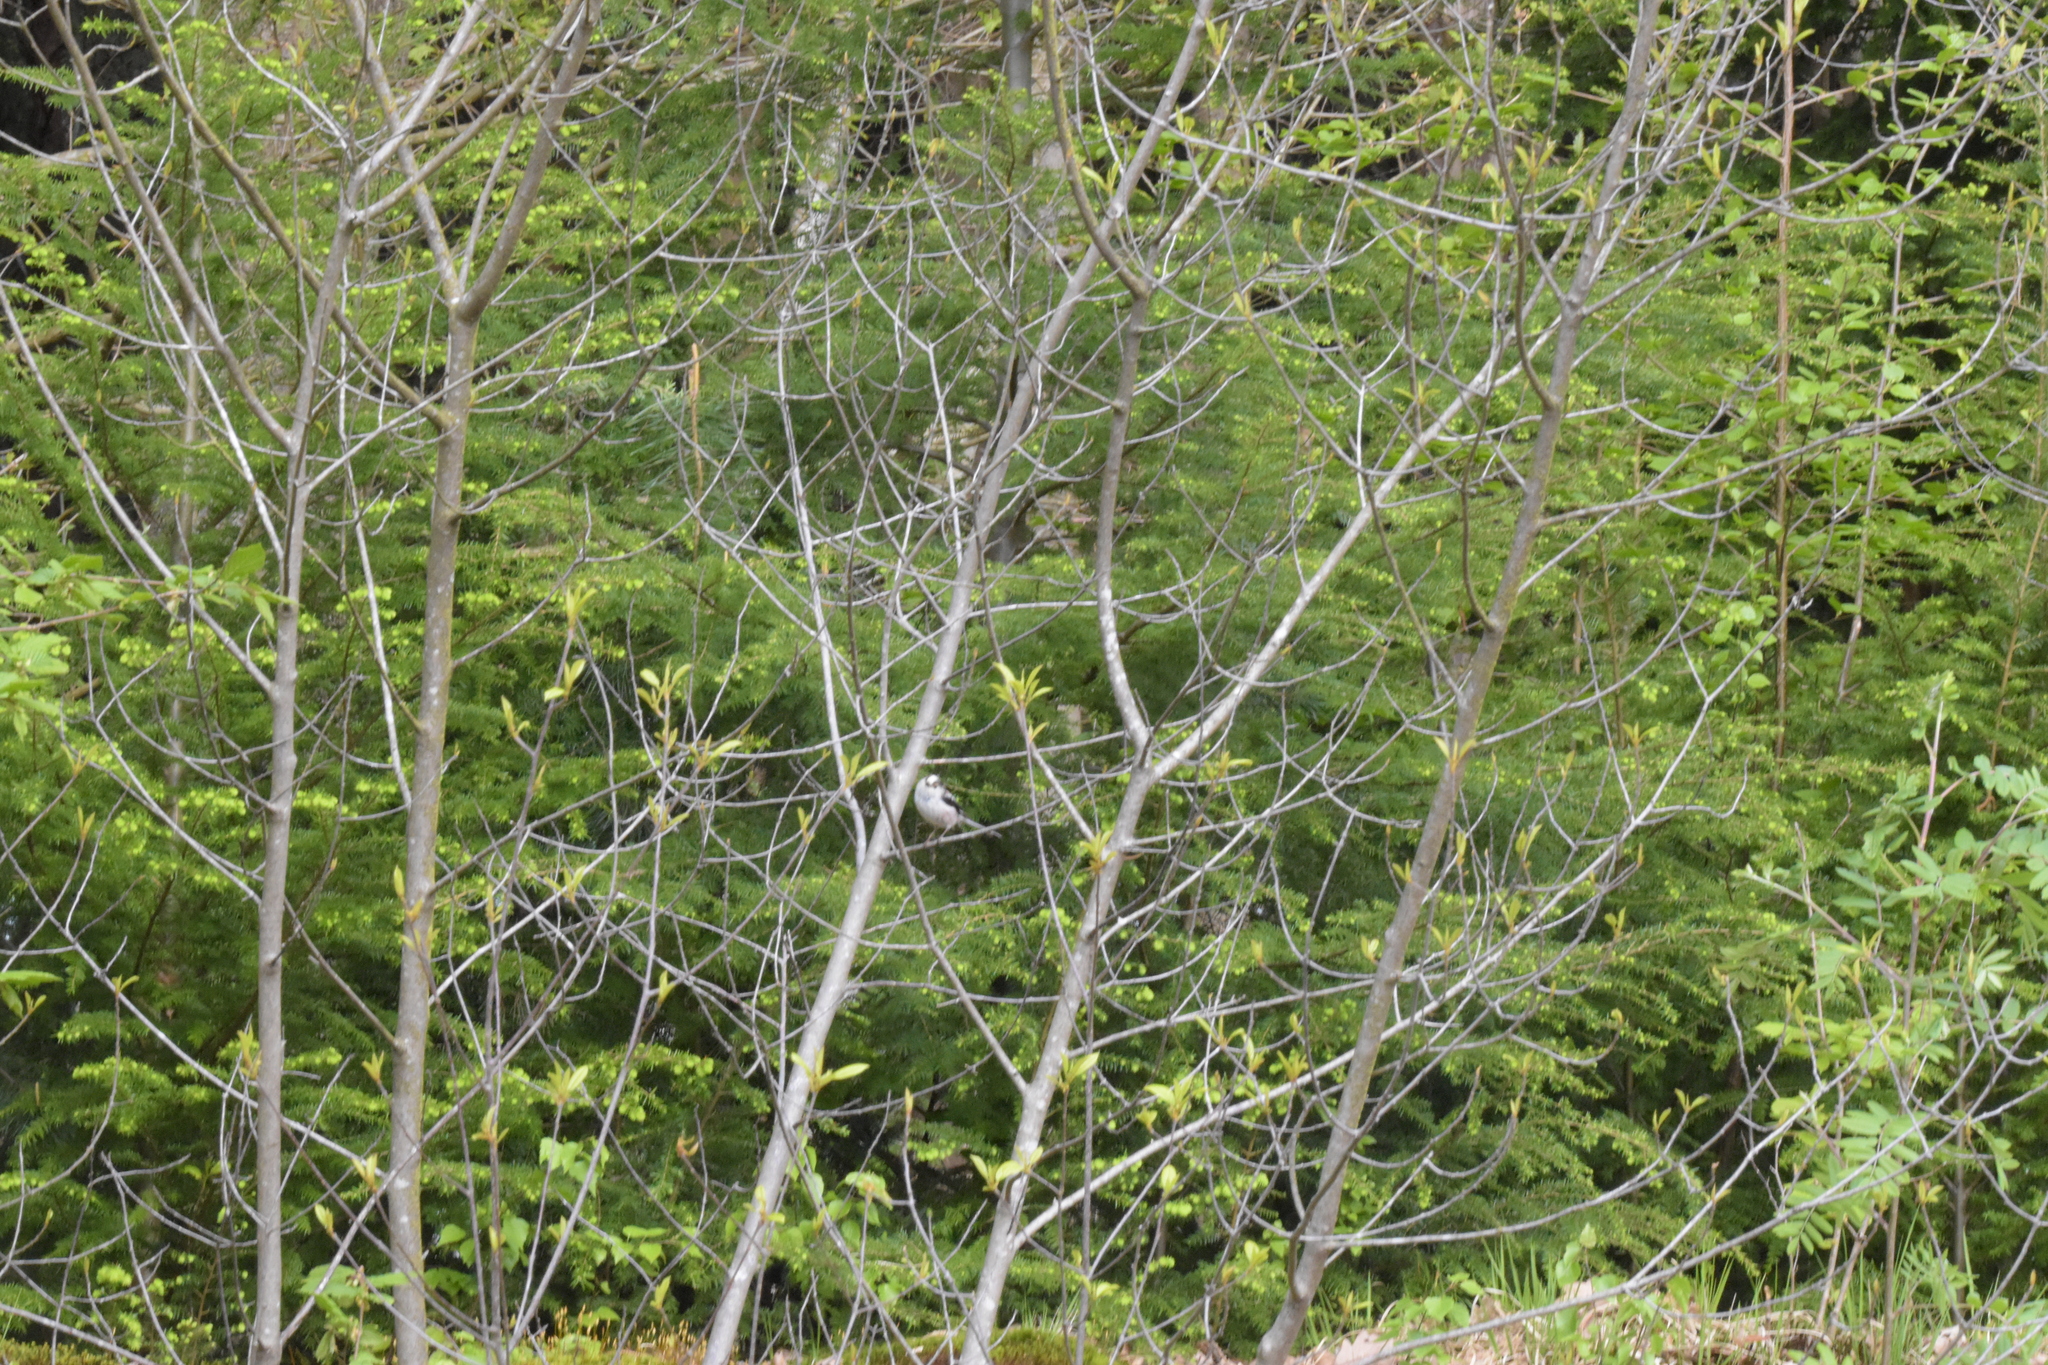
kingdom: Animalia
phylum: Chordata
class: Aves
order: Passeriformes
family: Aegithalidae
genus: Aegithalos
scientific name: Aegithalos caudatus
